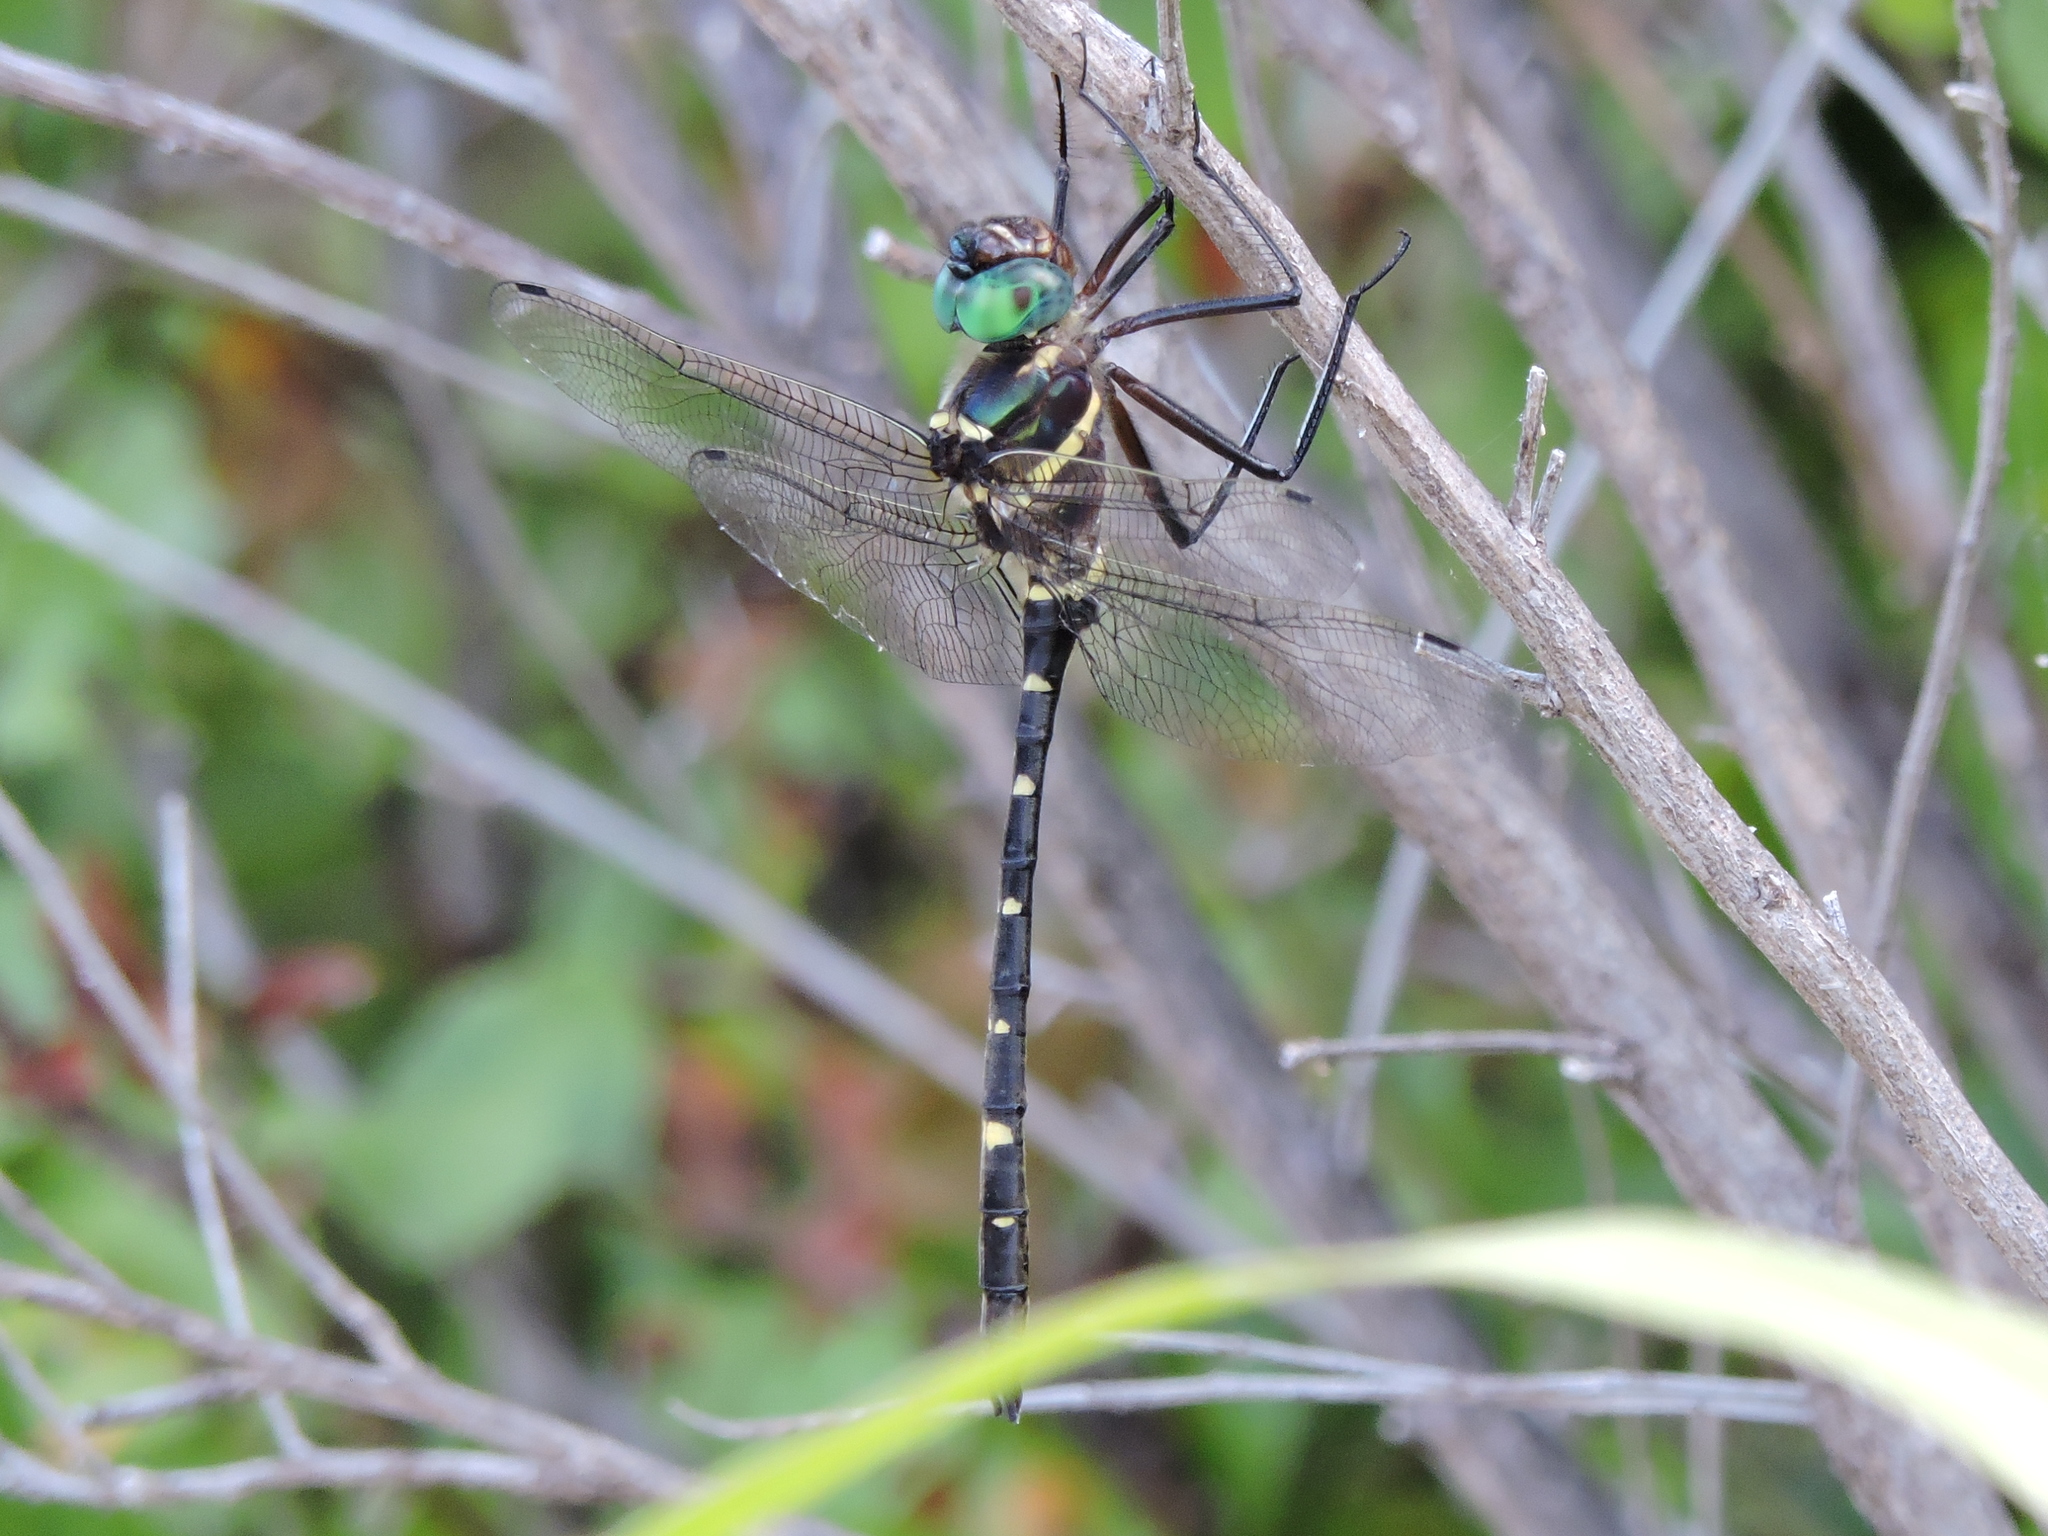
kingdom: Animalia
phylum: Arthropoda
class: Insecta
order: Odonata
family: Macromiidae
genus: Macromia
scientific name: Macromia taeniolata
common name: Royal river cruiser
